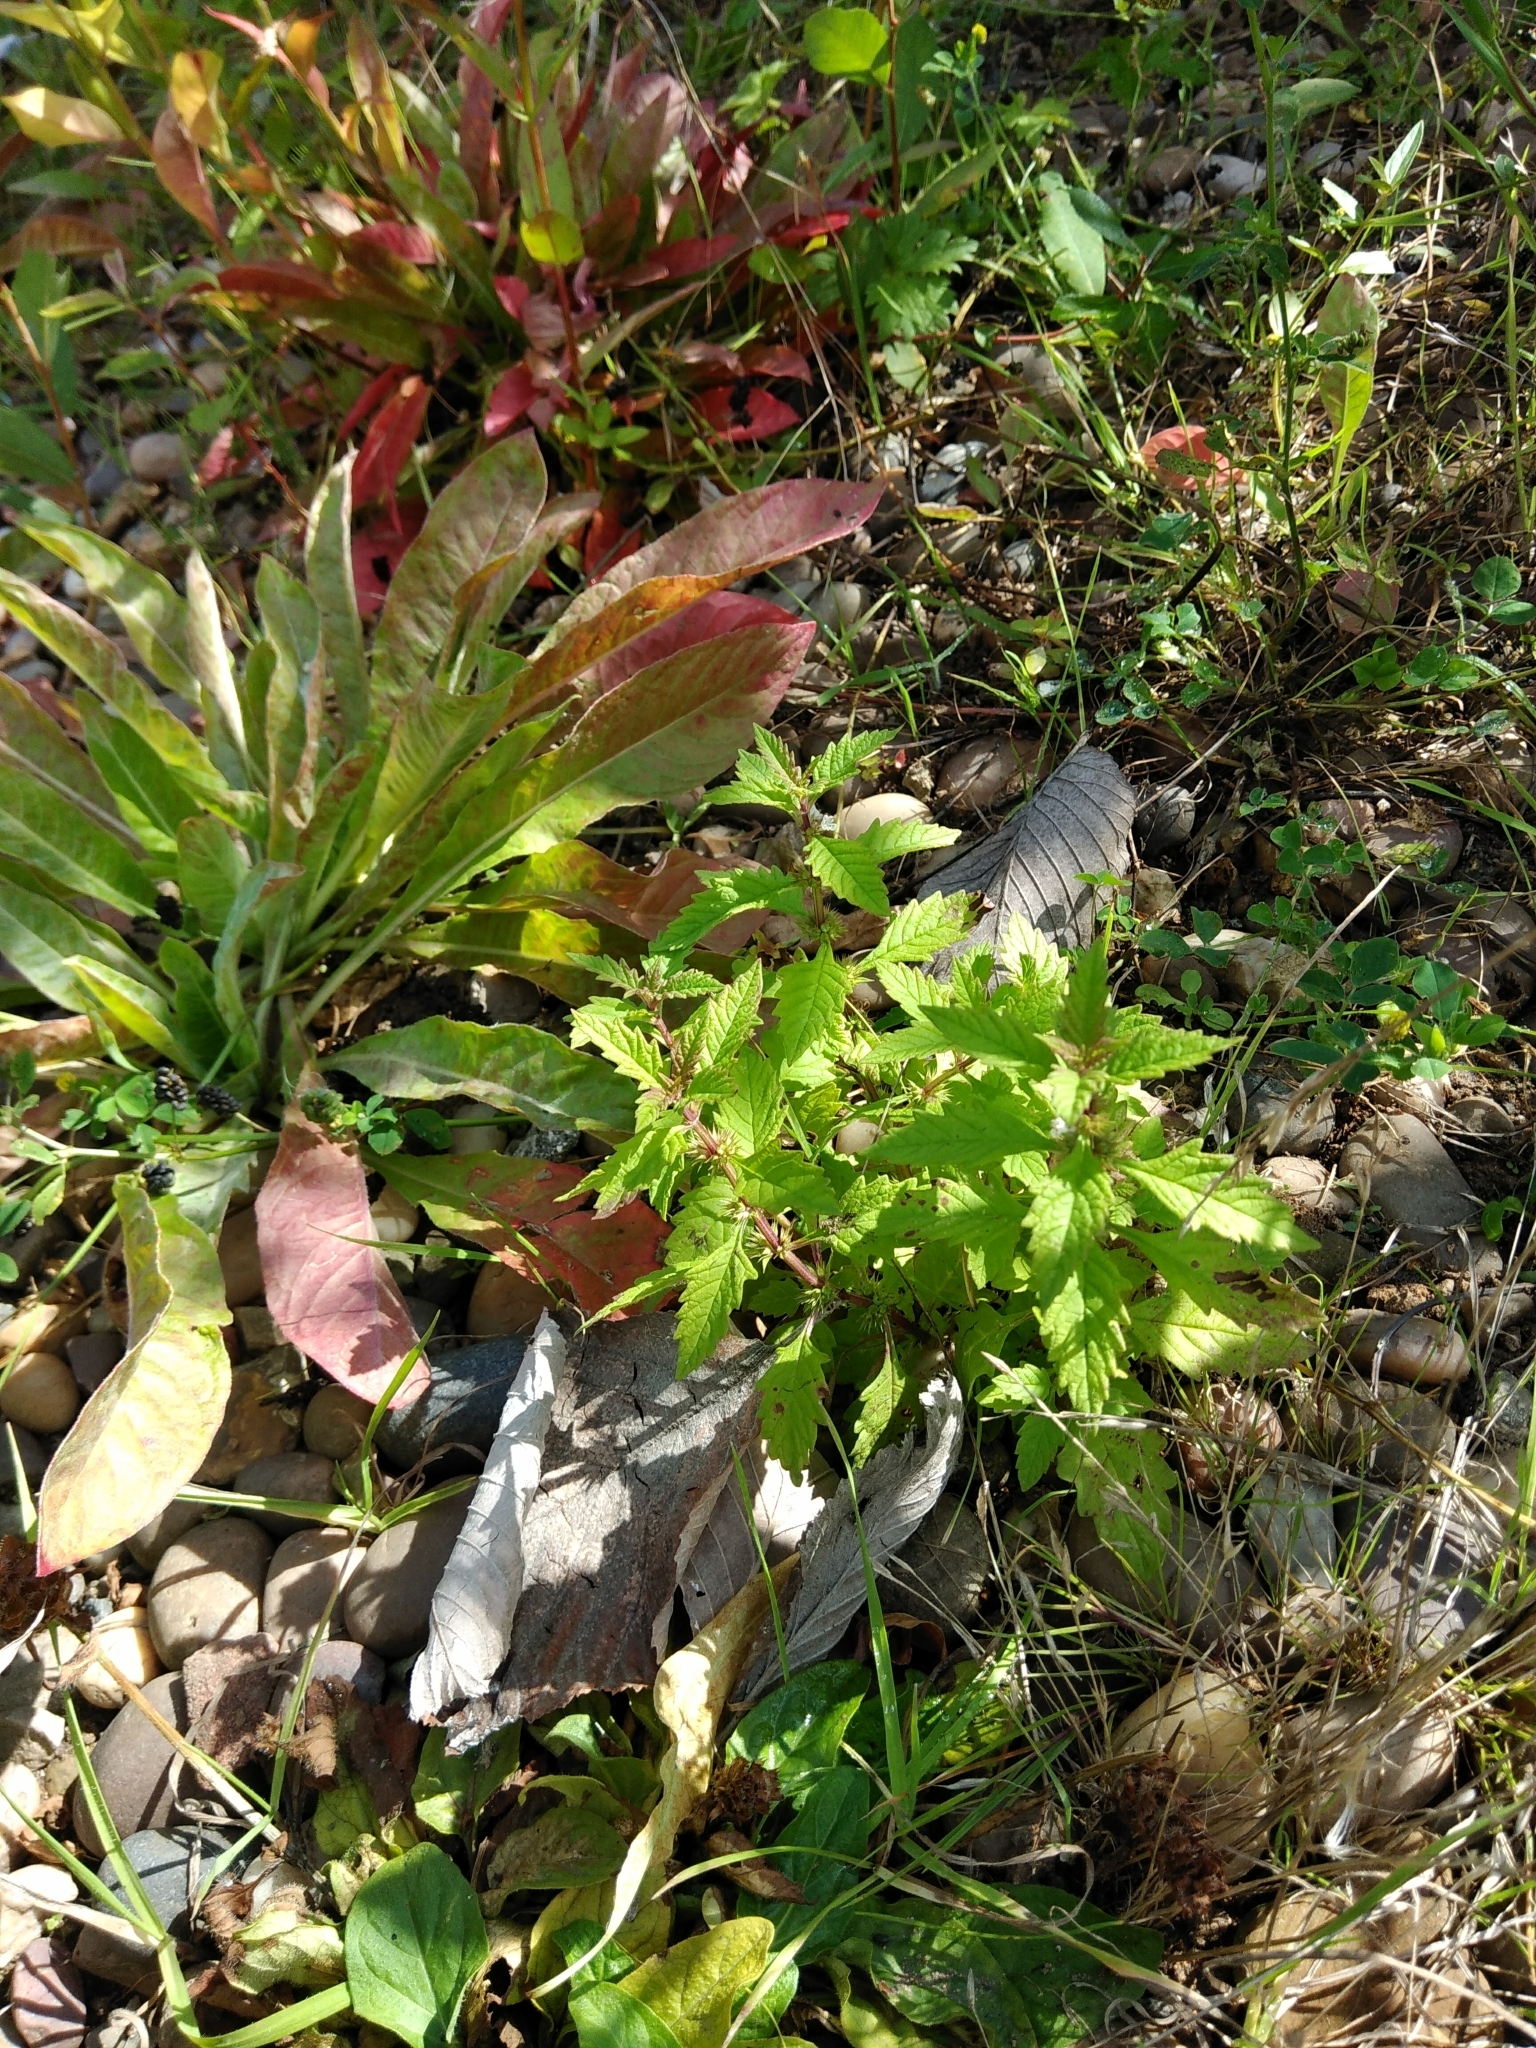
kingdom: Plantae
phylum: Tracheophyta
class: Magnoliopsida
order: Lamiales
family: Lamiaceae
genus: Lycopus
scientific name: Lycopus europaeus
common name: European bugleweed
